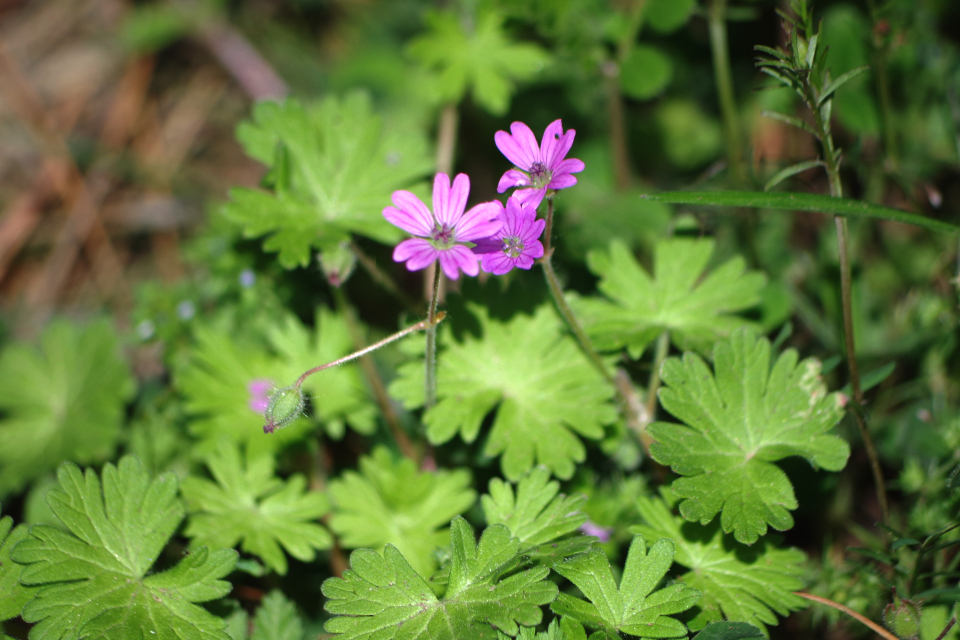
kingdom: Plantae
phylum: Tracheophyta
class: Magnoliopsida
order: Geraniales
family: Geraniaceae
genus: Geranium
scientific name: Geranium molle
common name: Dove's-foot crane's-bill
